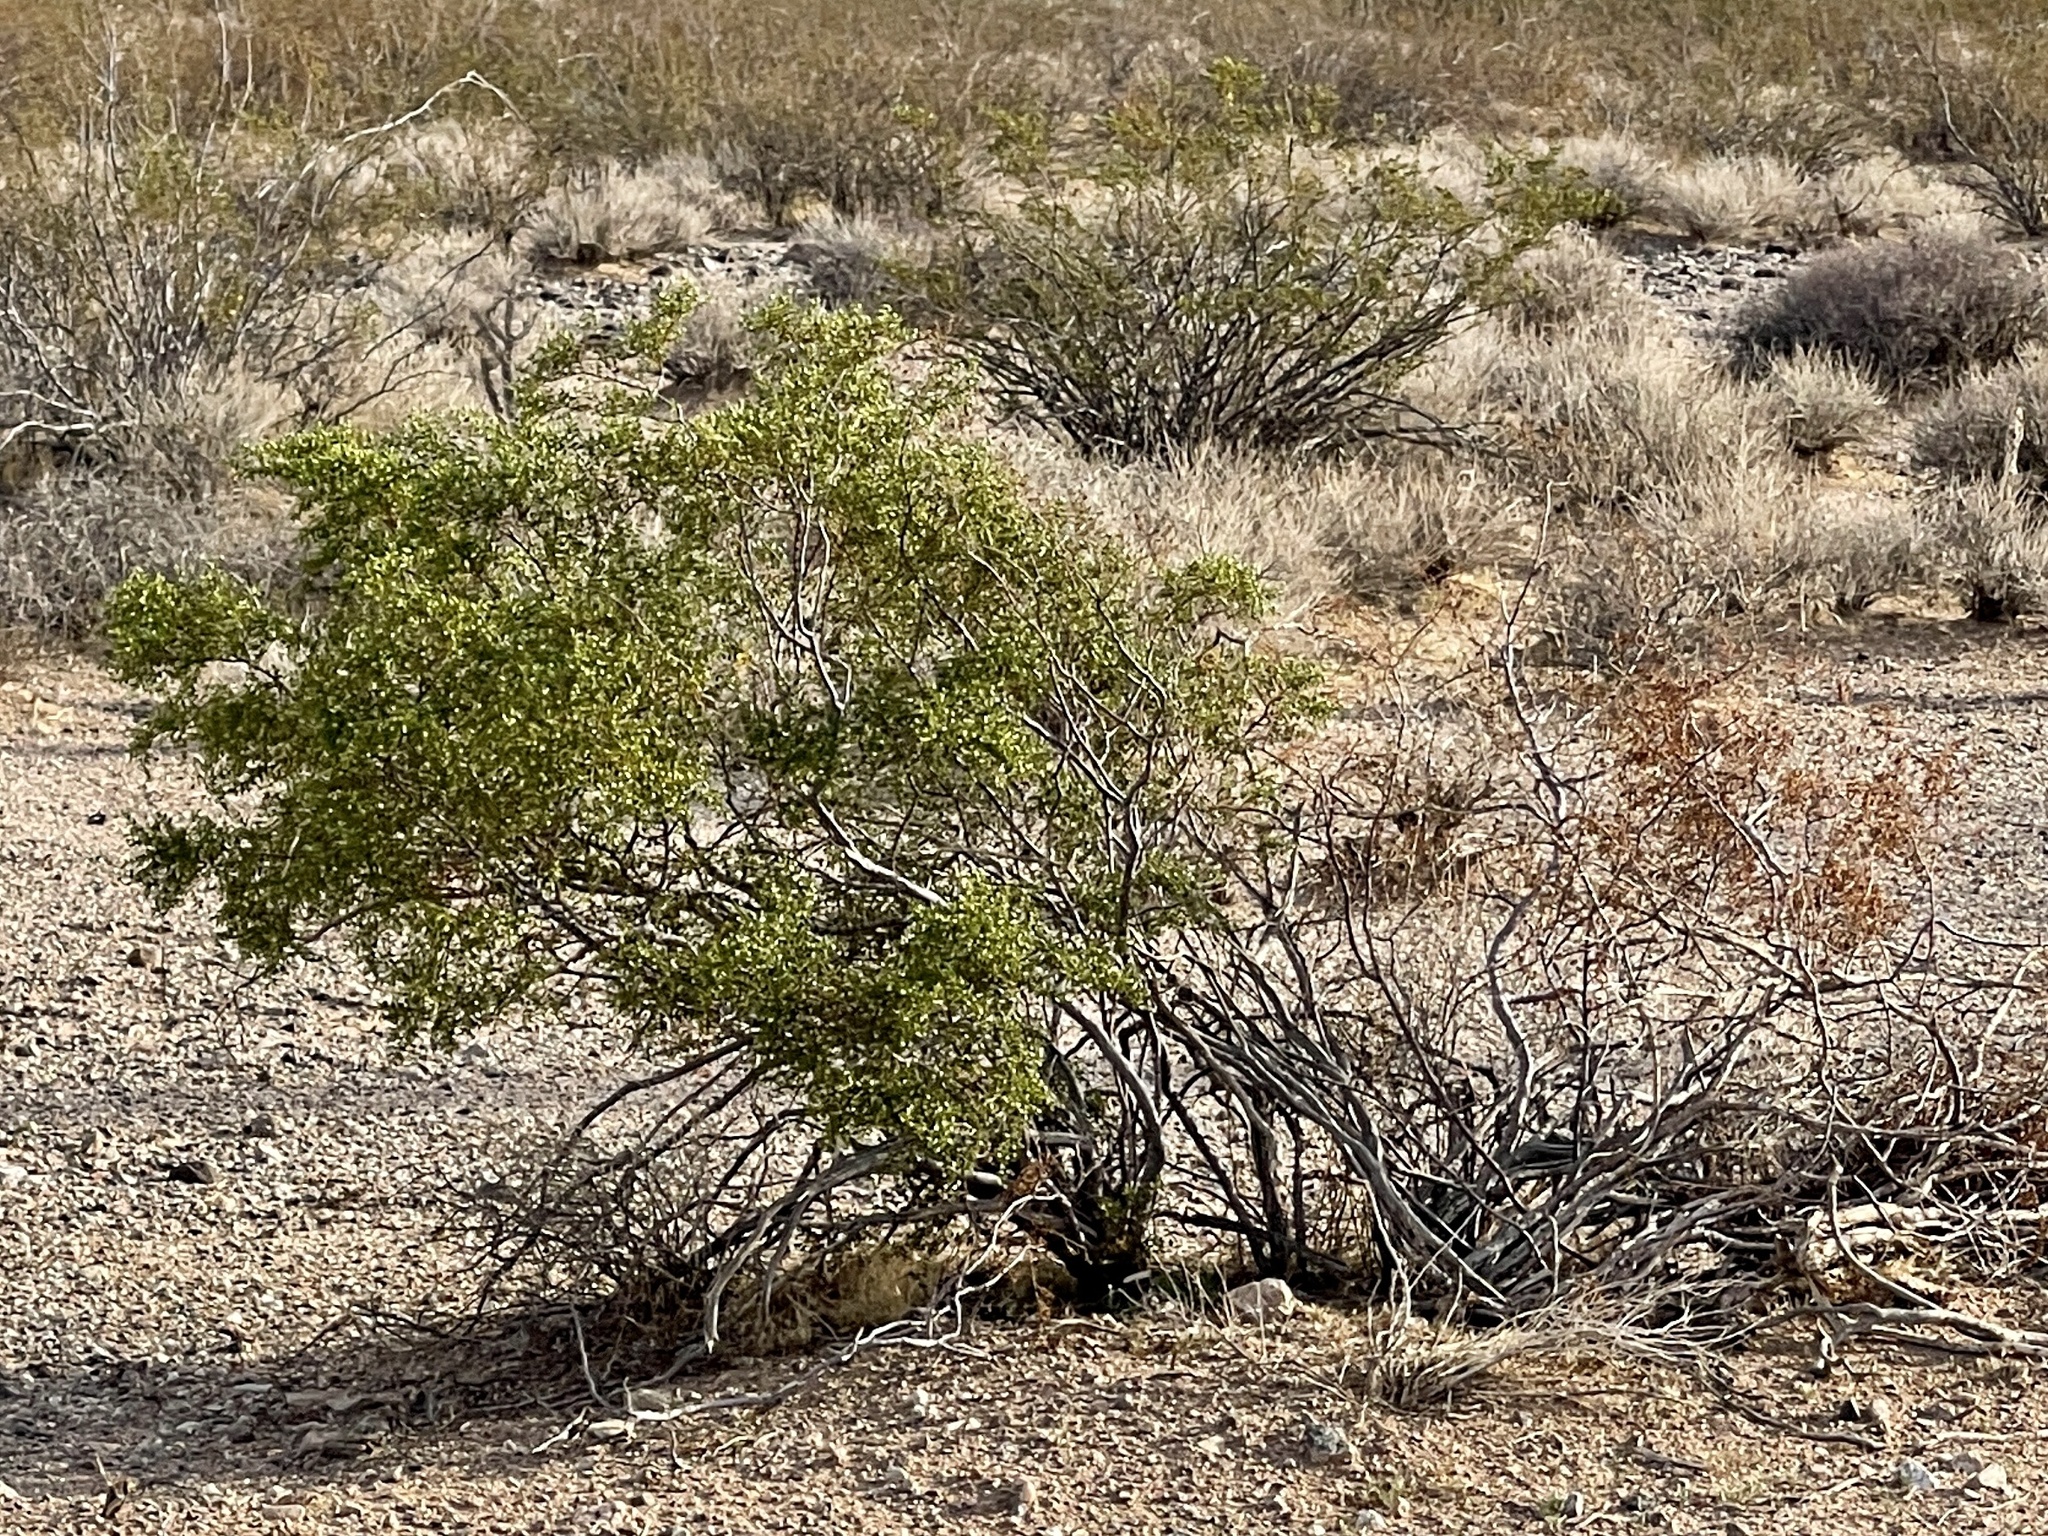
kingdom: Plantae
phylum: Tracheophyta
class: Magnoliopsida
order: Zygophyllales
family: Zygophyllaceae
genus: Larrea
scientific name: Larrea tridentata
